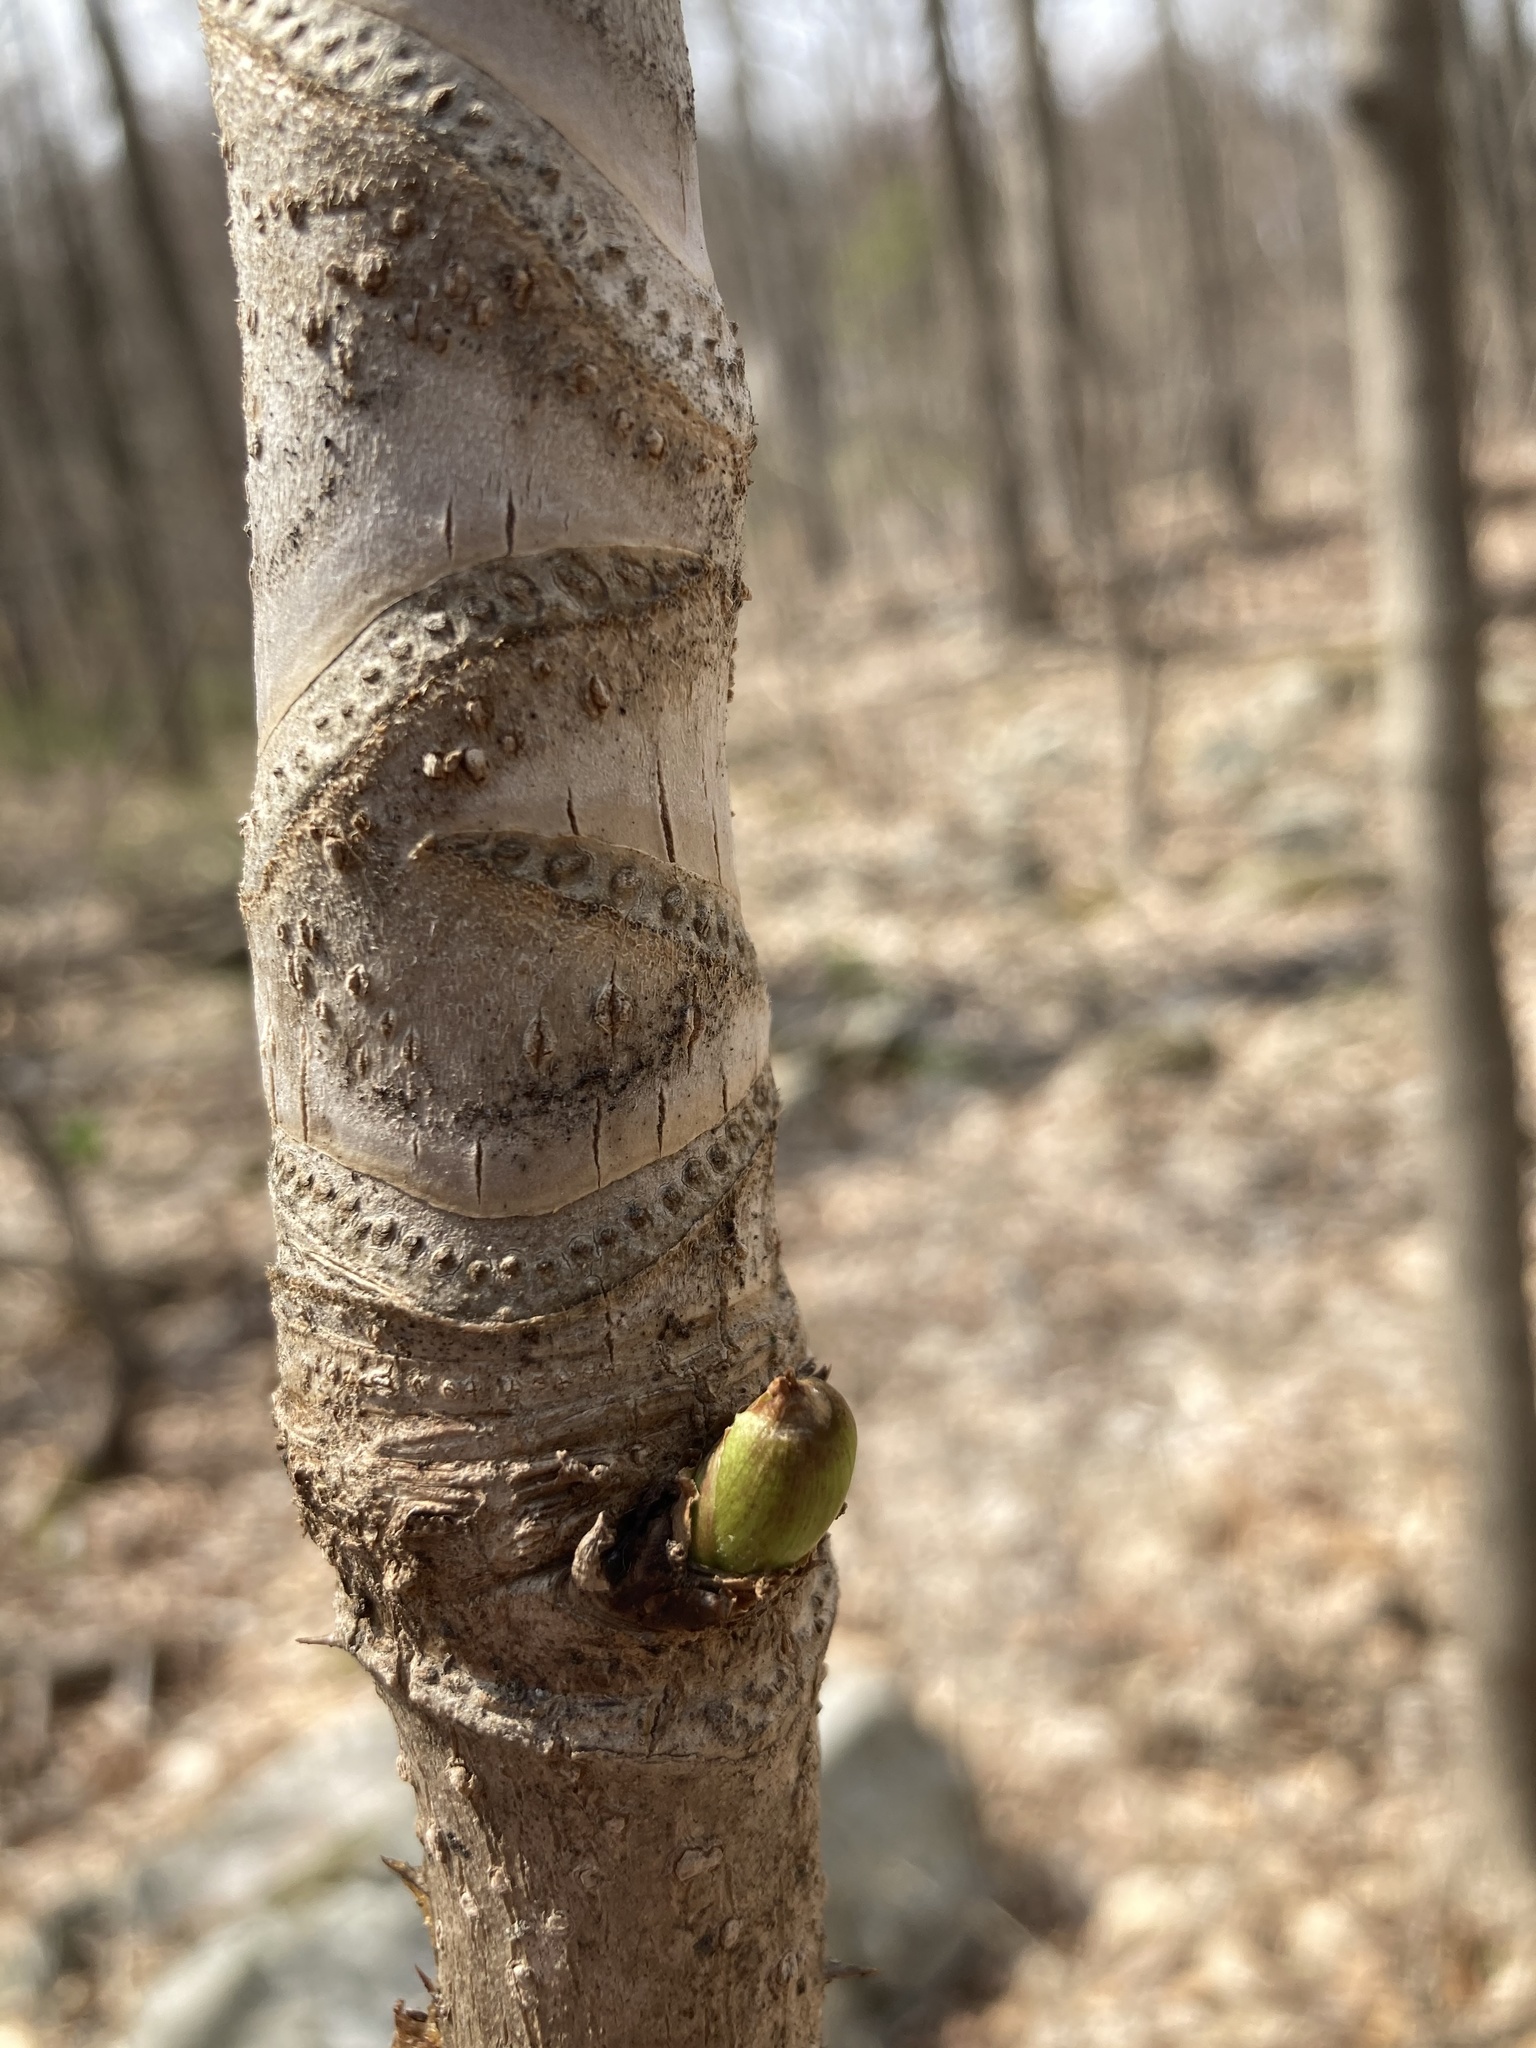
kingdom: Plantae
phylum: Tracheophyta
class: Magnoliopsida
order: Apiales
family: Araliaceae
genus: Aralia
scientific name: Aralia elata
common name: Japanese angelica-tree
